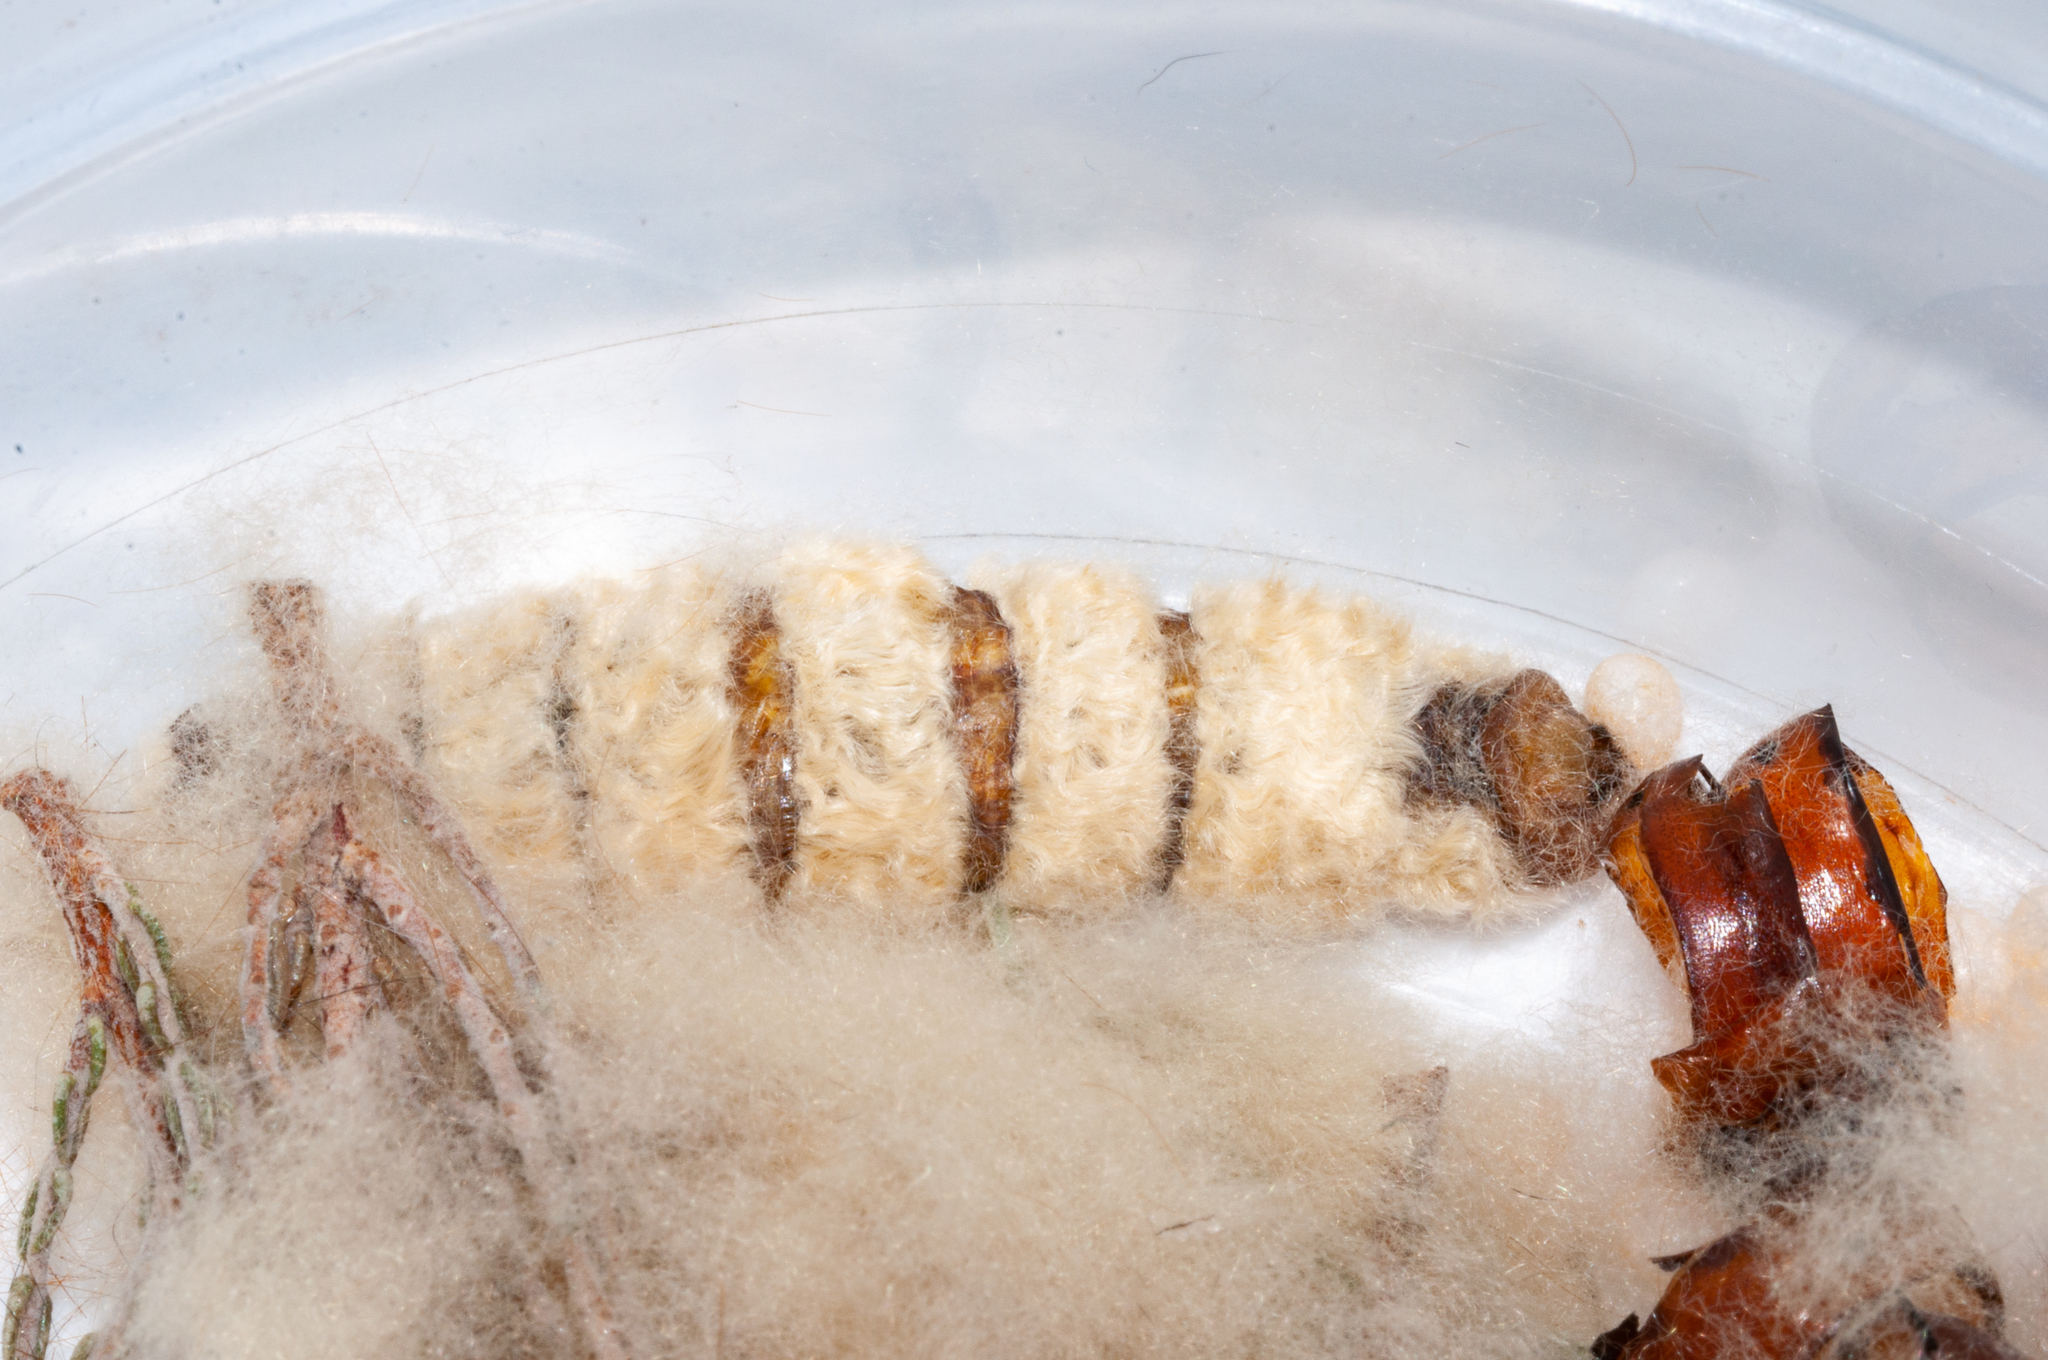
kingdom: Animalia
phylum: Arthropoda
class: Insecta
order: Lepidoptera
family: Lasiocampidae
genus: Mesocelis
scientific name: Mesocelis monticola
